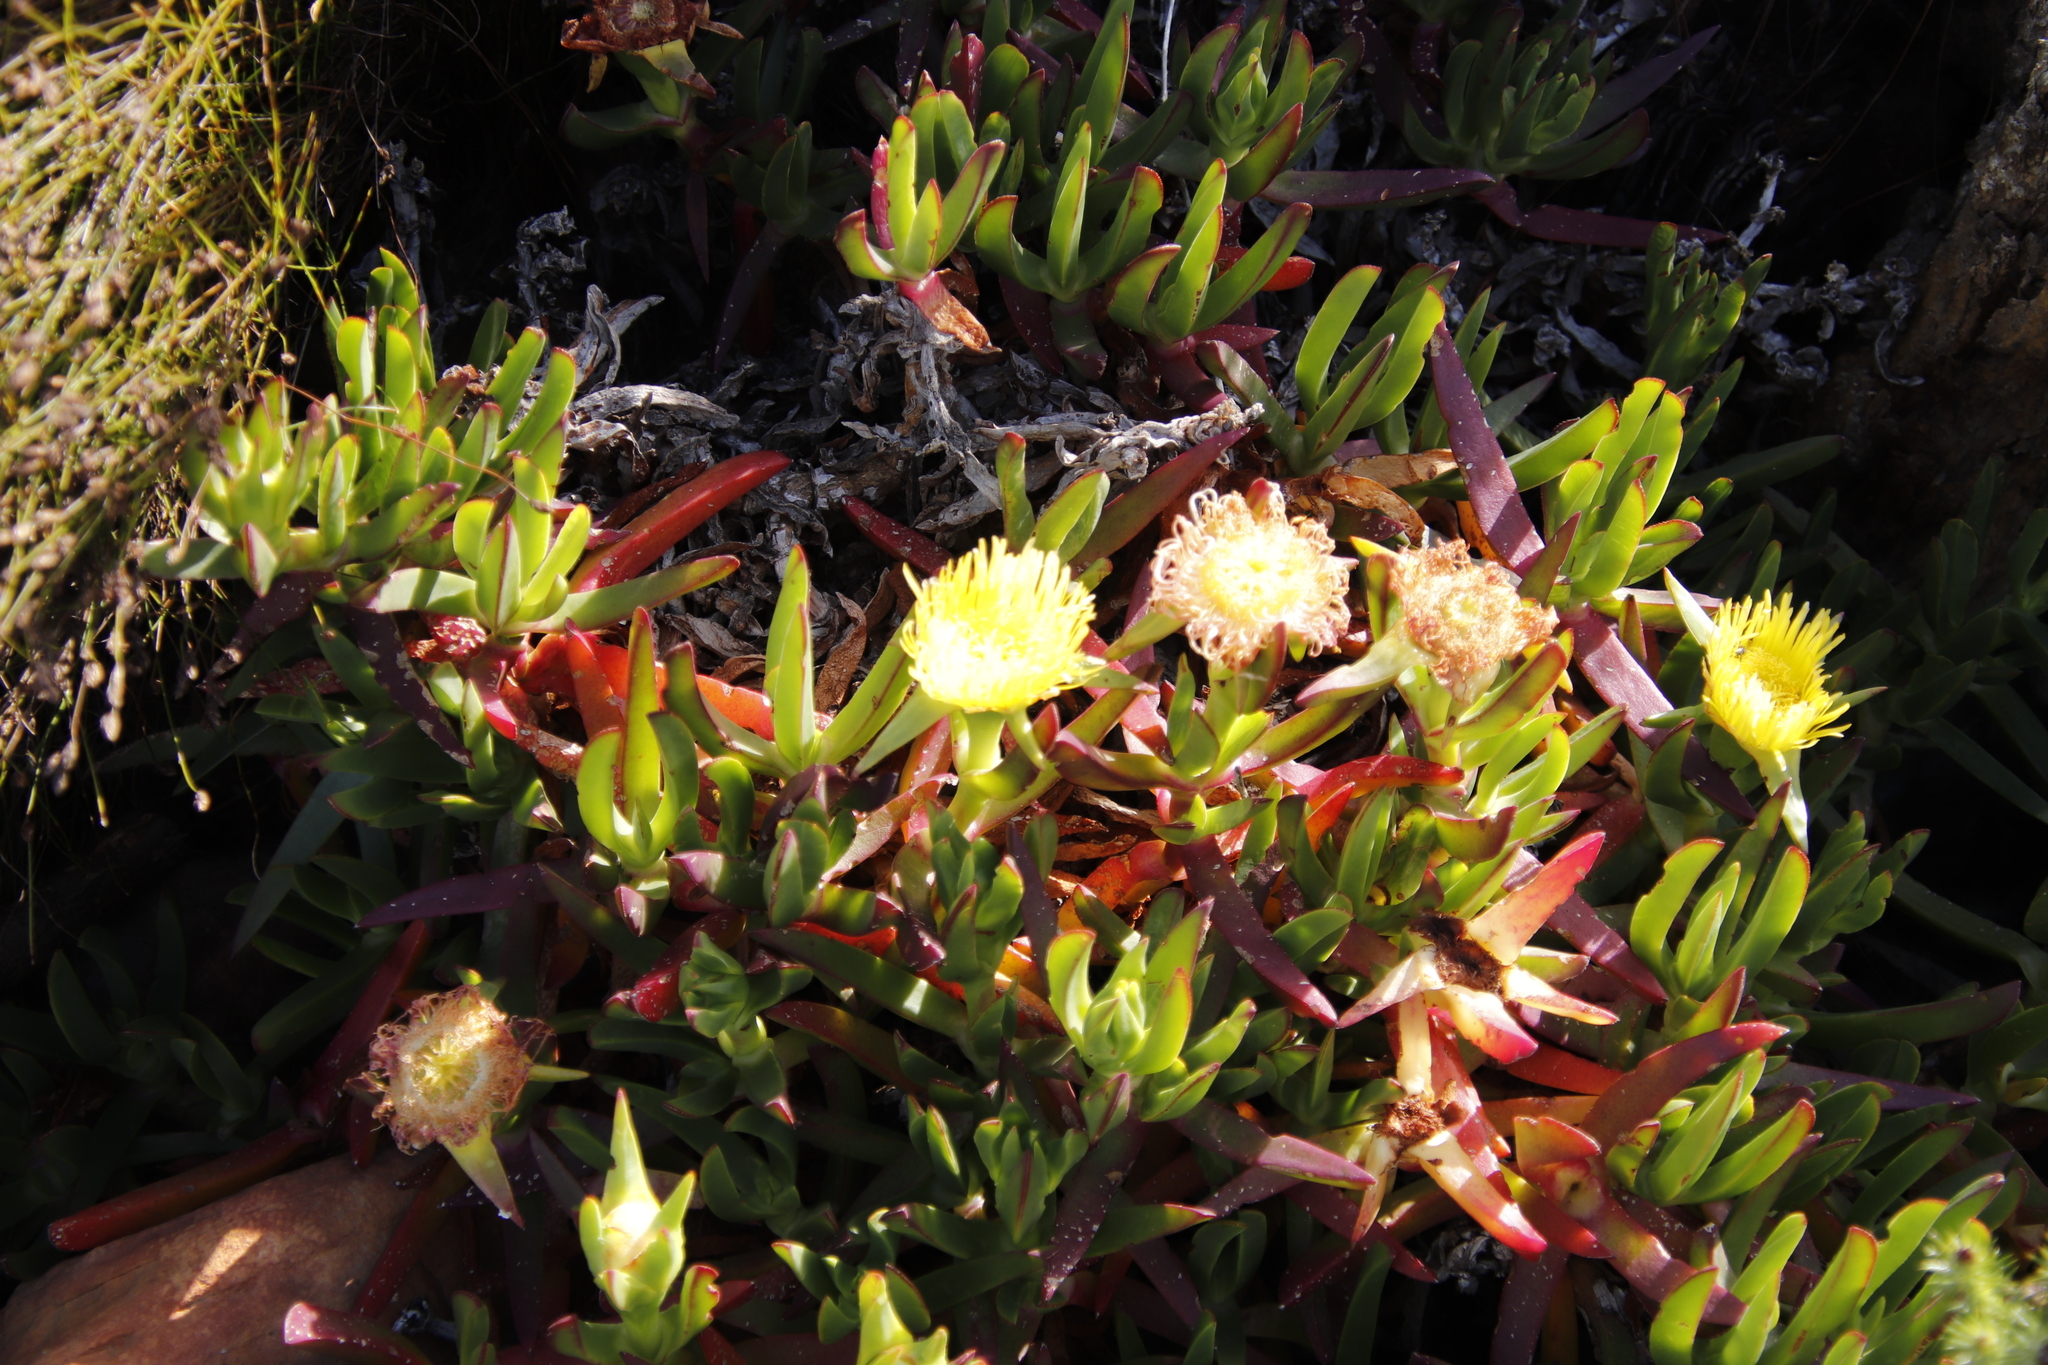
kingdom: Plantae
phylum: Tracheophyta
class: Magnoliopsida
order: Caryophyllales
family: Aizoaceae
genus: Carpobrotus
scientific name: Carpobrotus edulis
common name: Hottentot-fig
